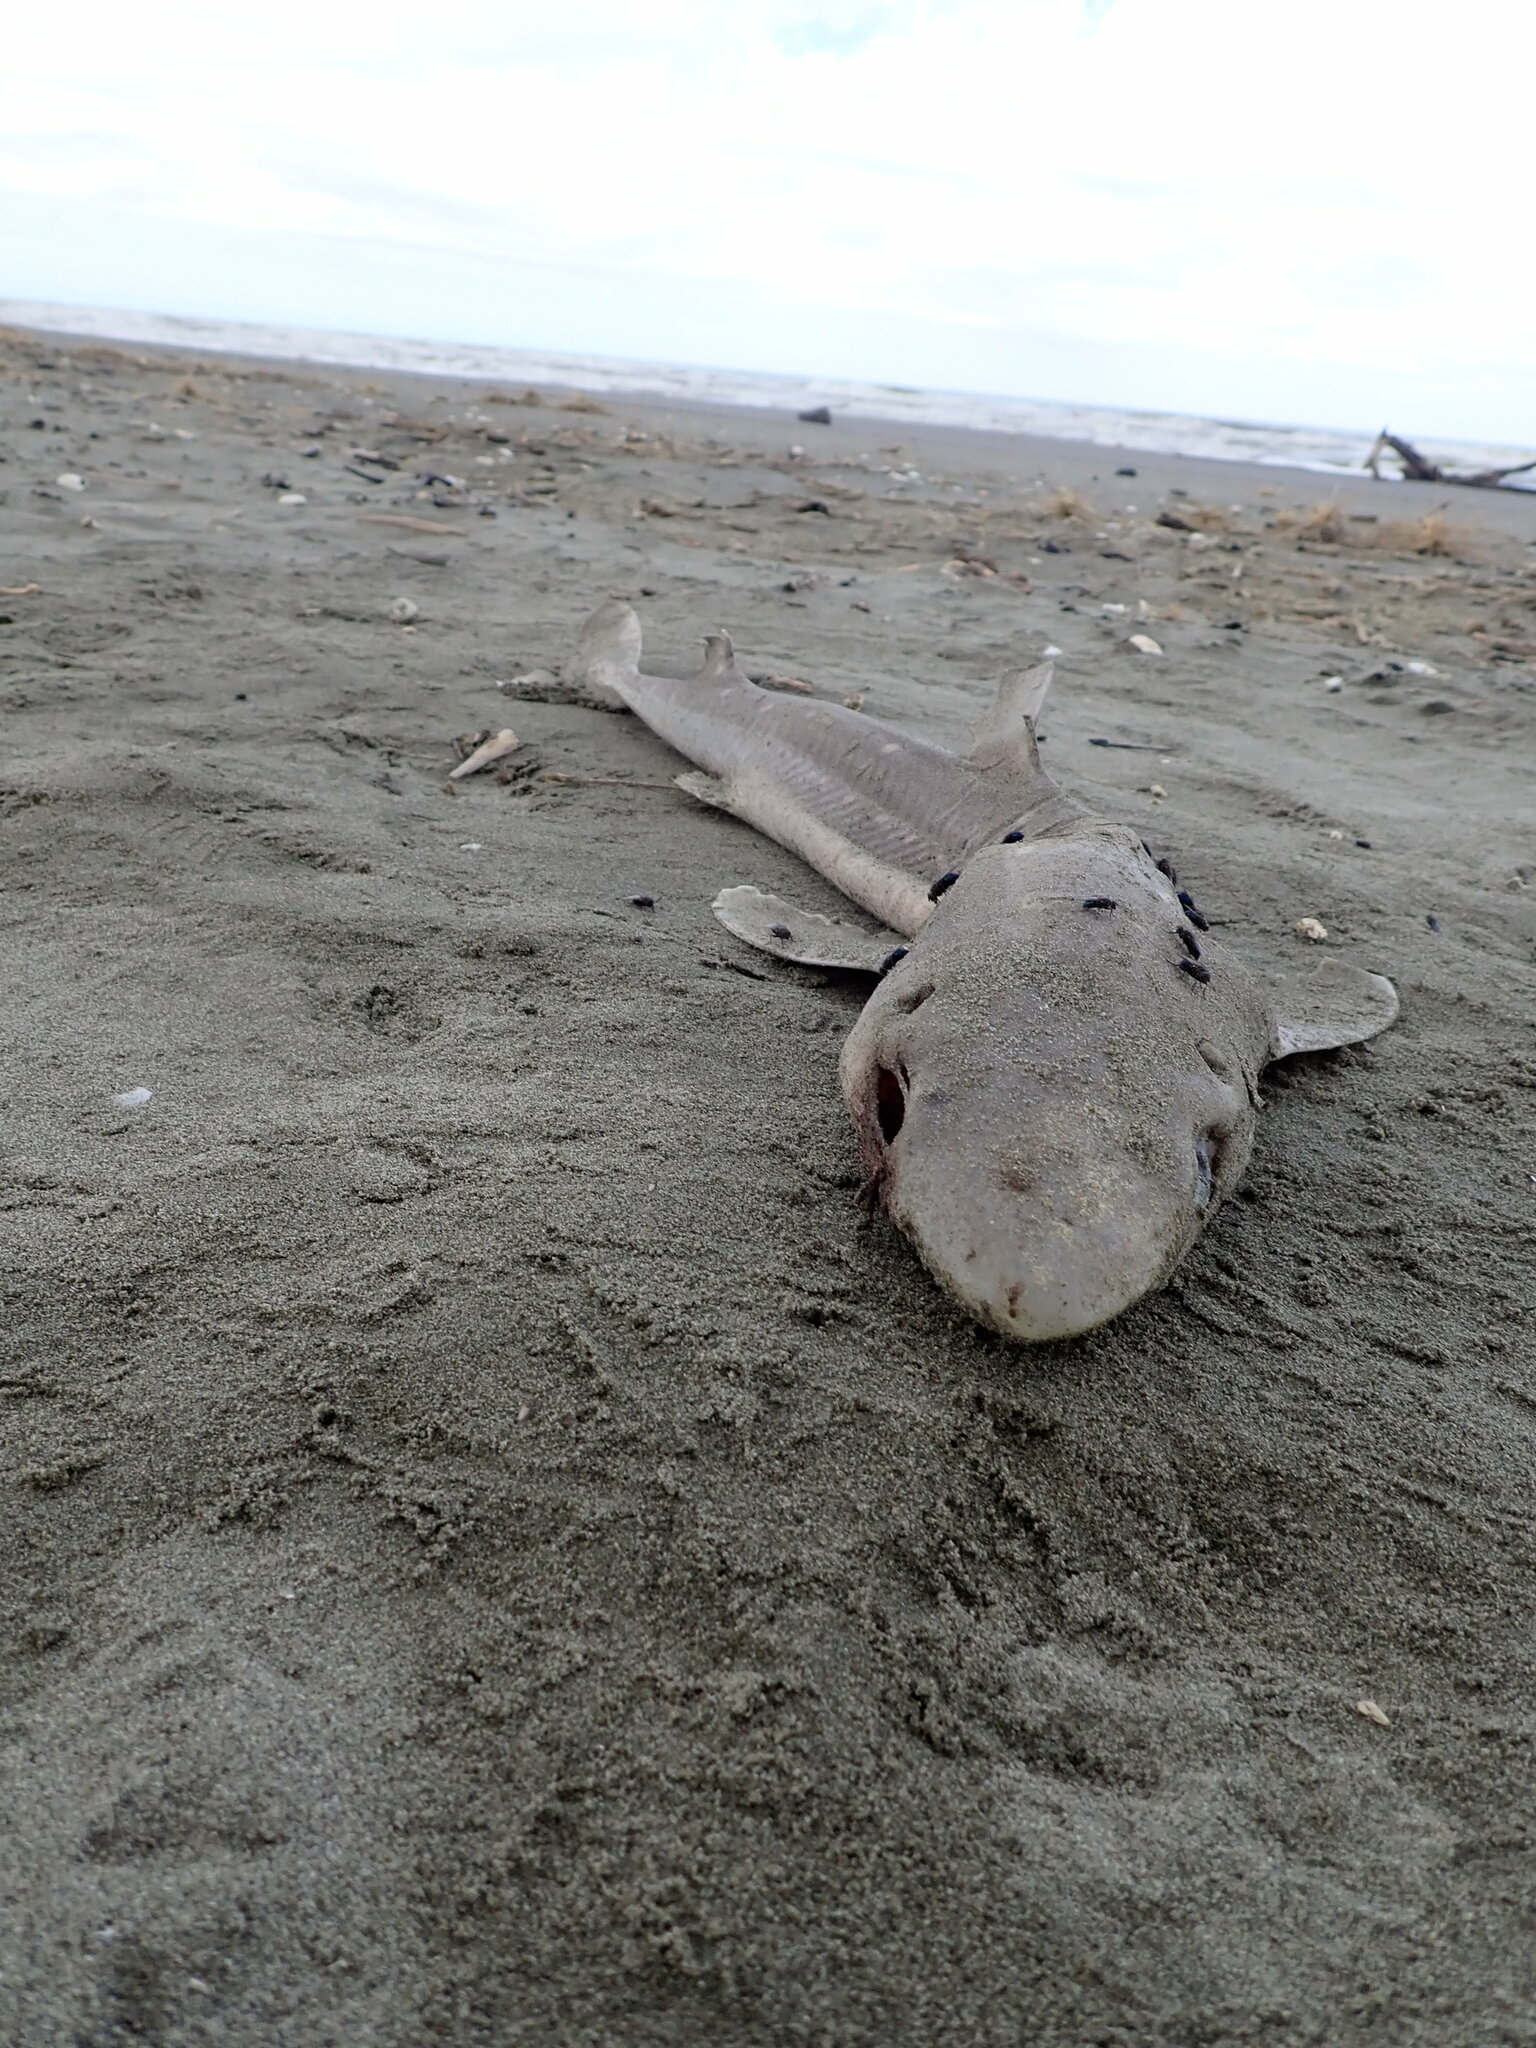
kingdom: Animalia
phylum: Chordata
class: Elasmobranchii
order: Squaliformes
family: Squalidae
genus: Squalus
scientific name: Squalus acanthias
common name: Spurdog
